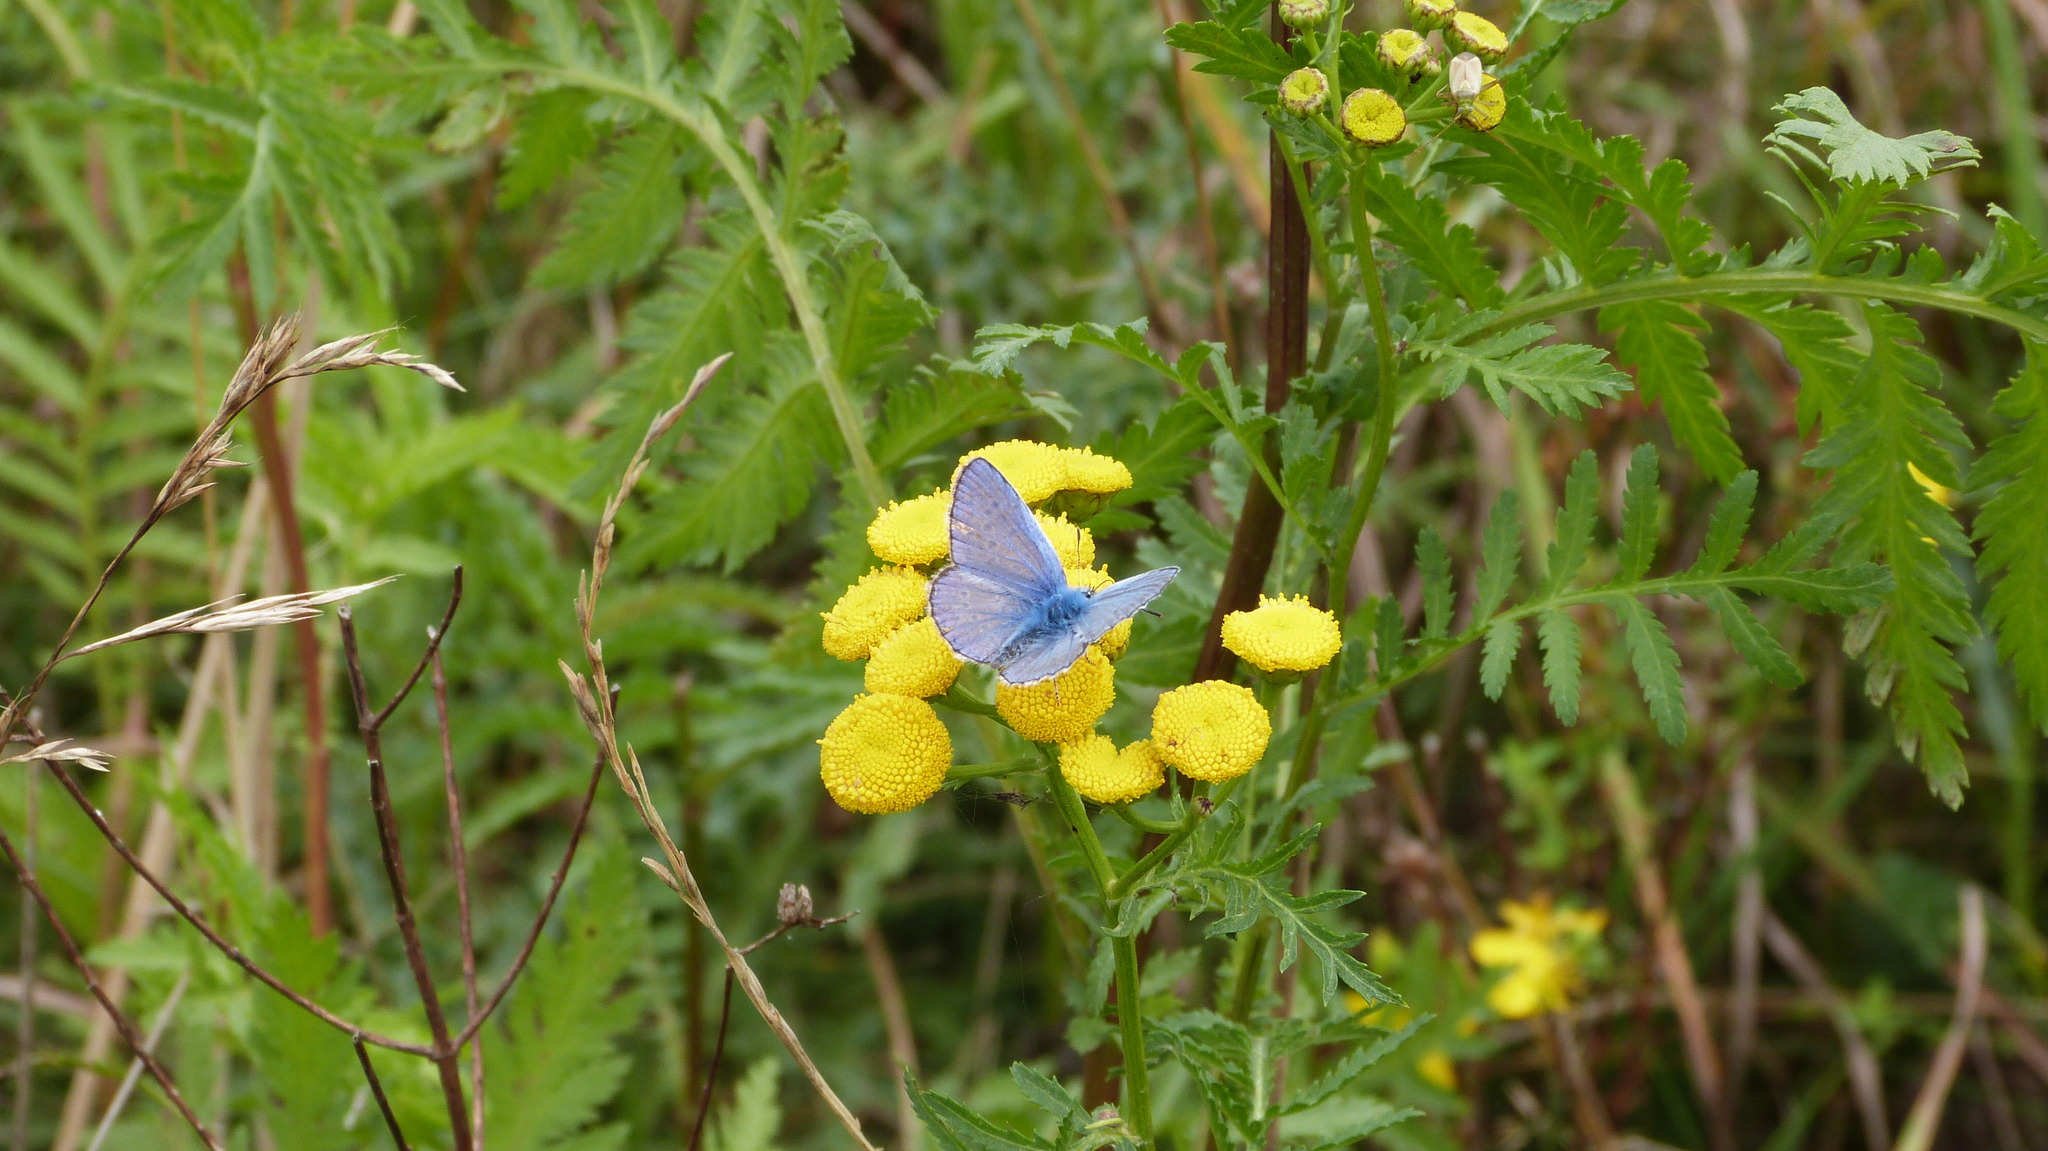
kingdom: Animalia
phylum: Arthropoda
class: Insecta
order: Lepidoptera
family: Lycaenidae
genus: Polyommatus
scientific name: Polyommatus icarus
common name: Common blue
